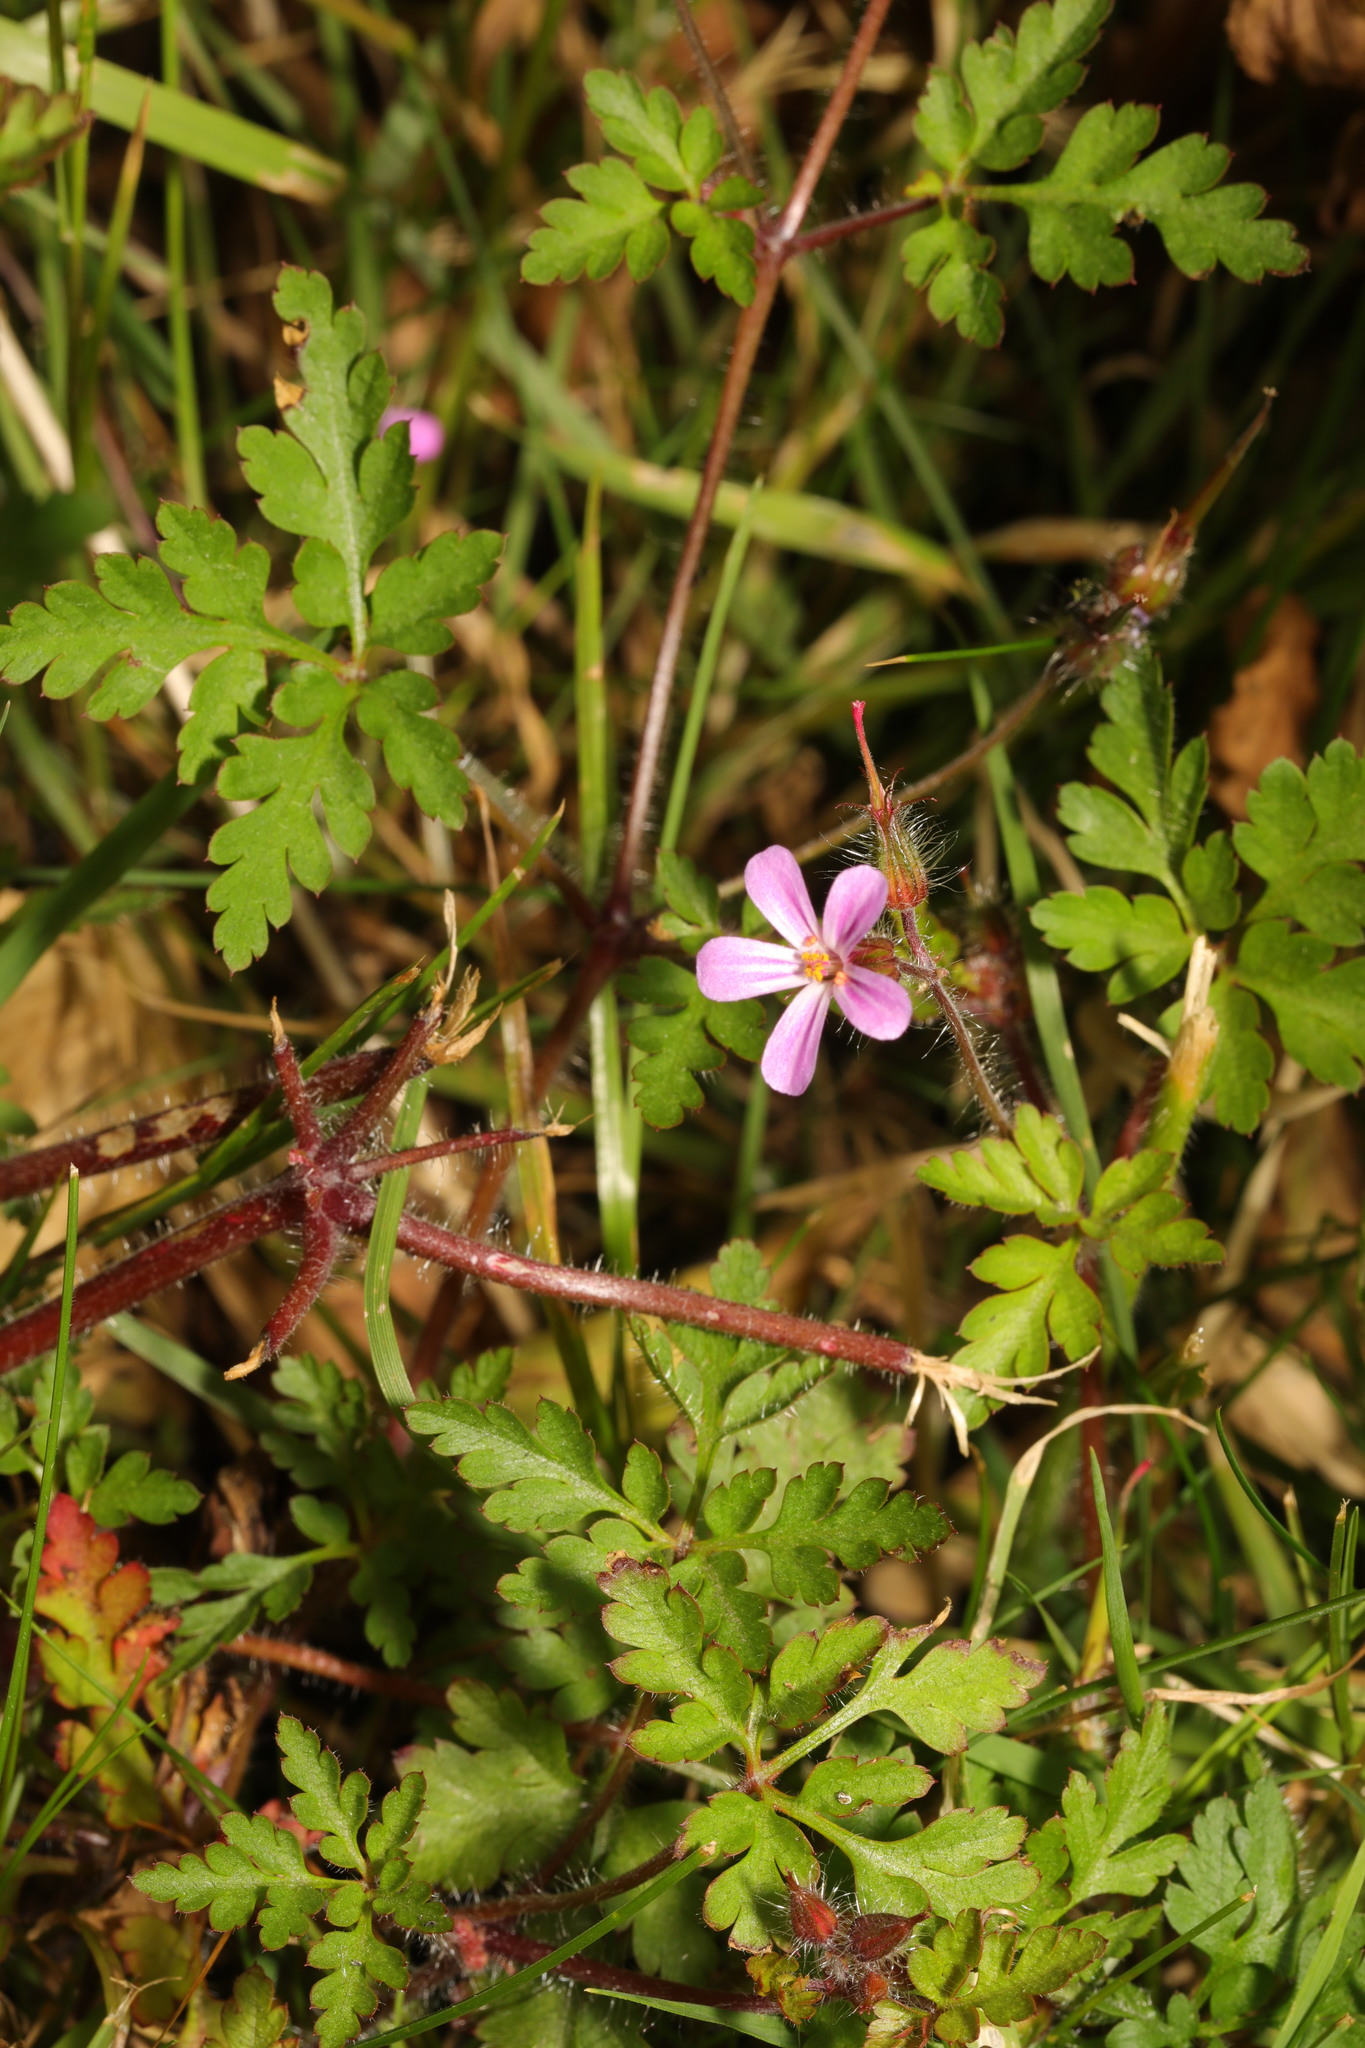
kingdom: Plantae
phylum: Tracheophyta
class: Magnoliopsida
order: Geraniales
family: Geraniaceae
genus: Geranium
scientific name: Geranium robertianum
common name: Herb-robert
